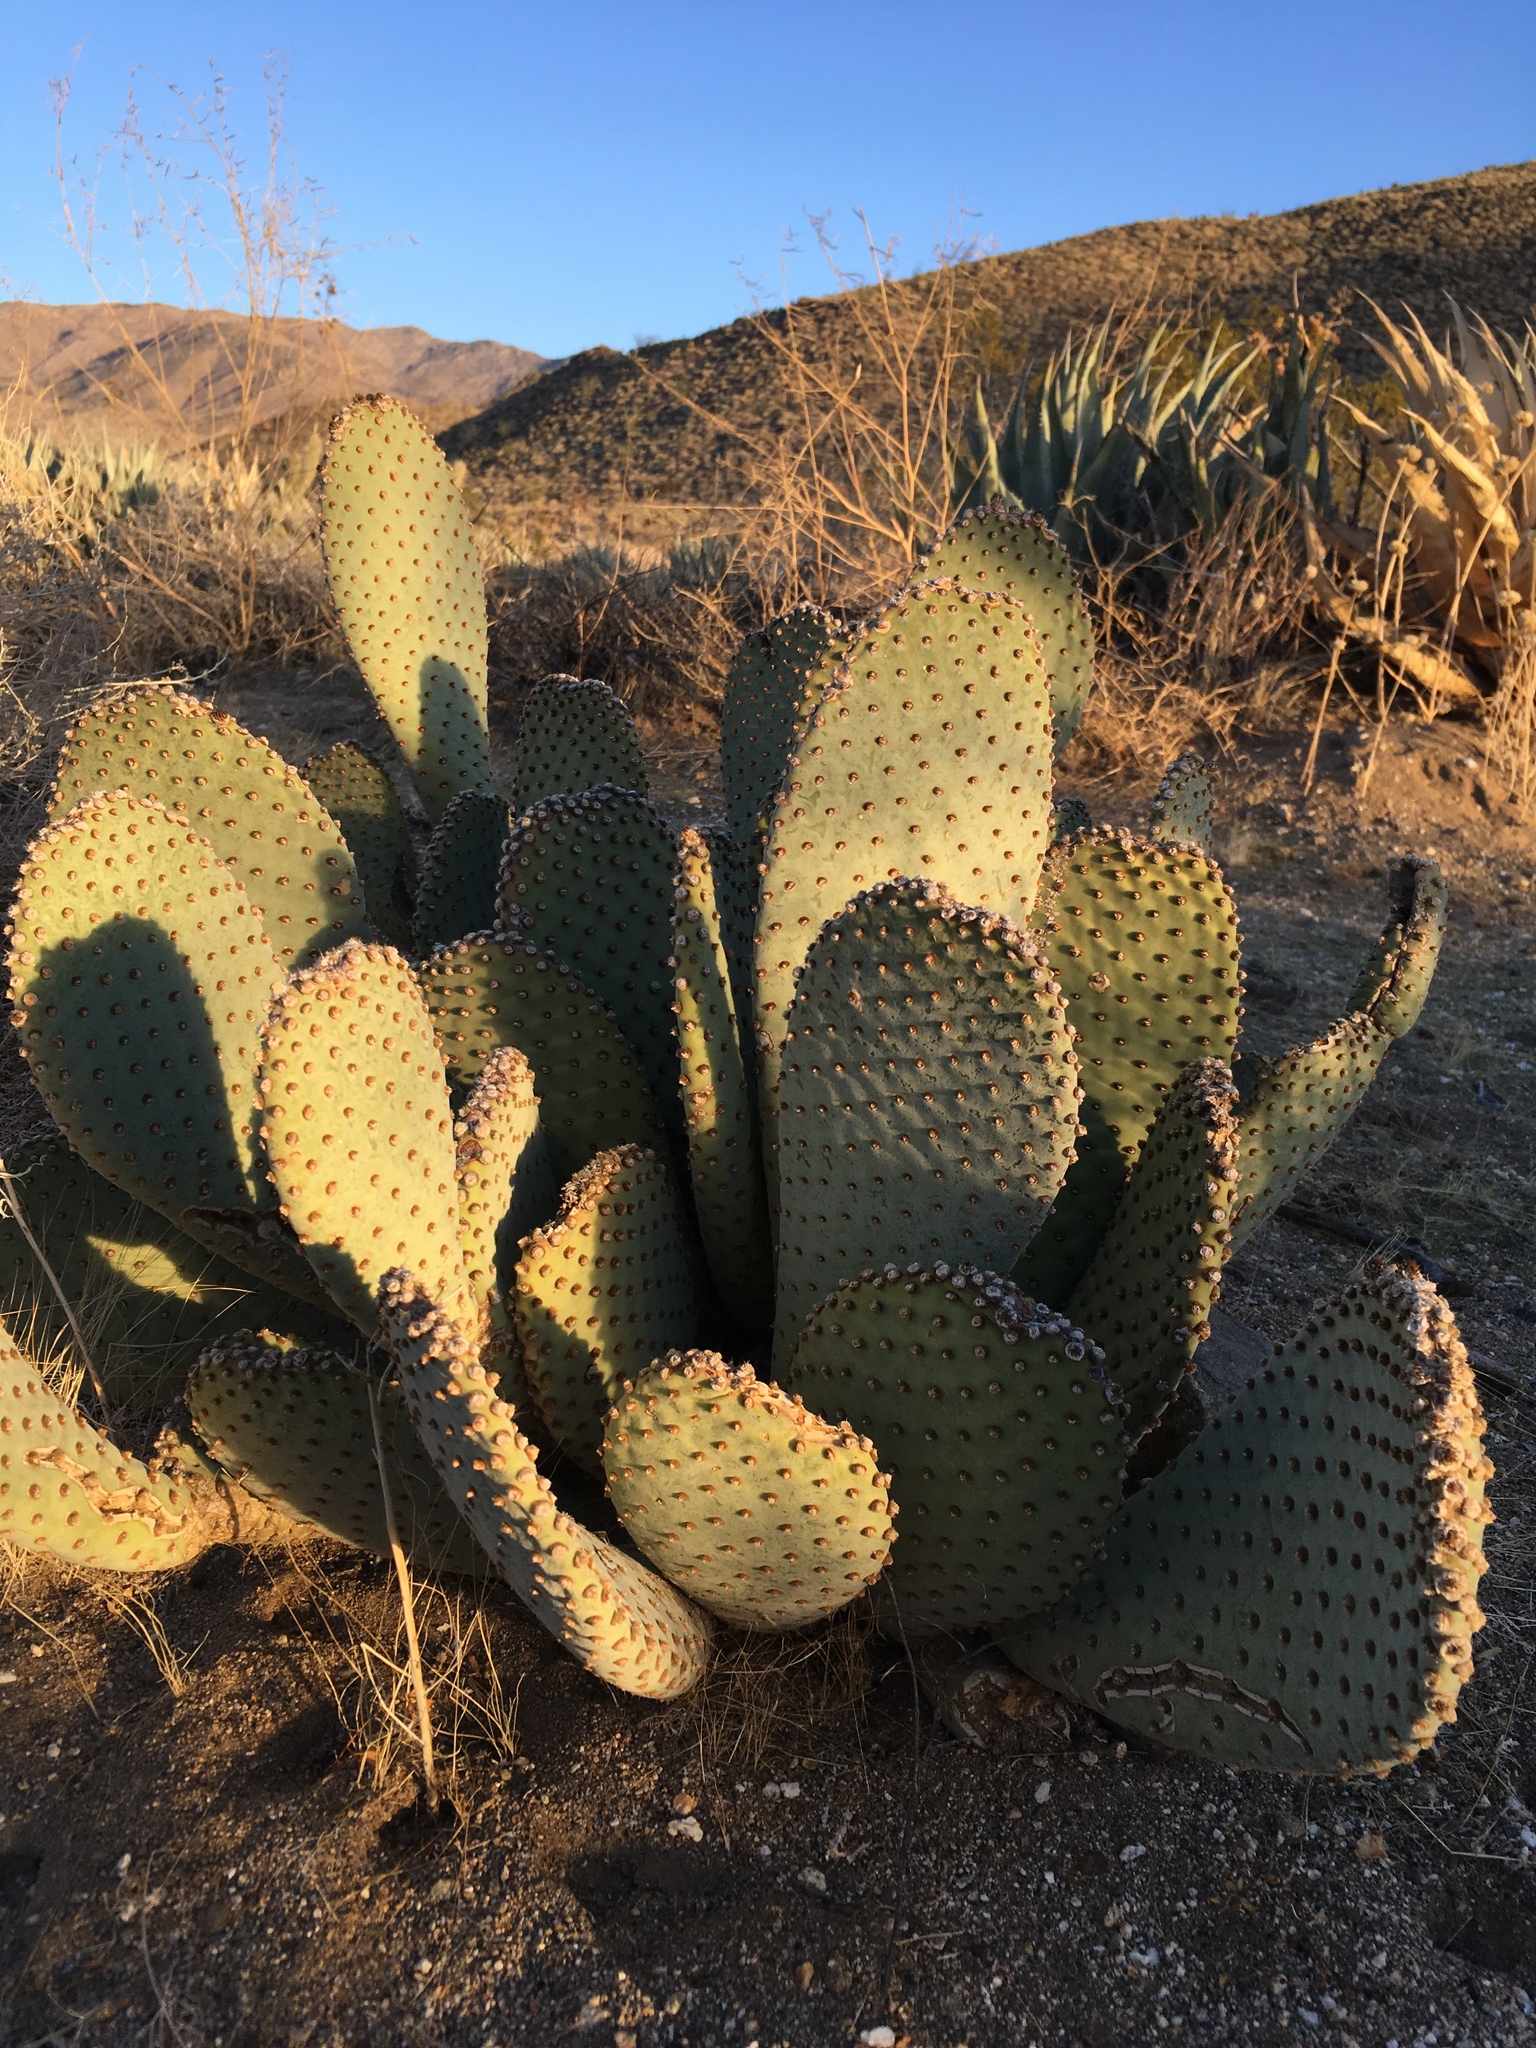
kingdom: Plantae
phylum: Tracheophyta
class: Magnoliopsida
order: Caryophyllales
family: Cactaceae
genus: Opuntia
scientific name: Opuntia basilaris
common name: Beavertail prickly-pear
